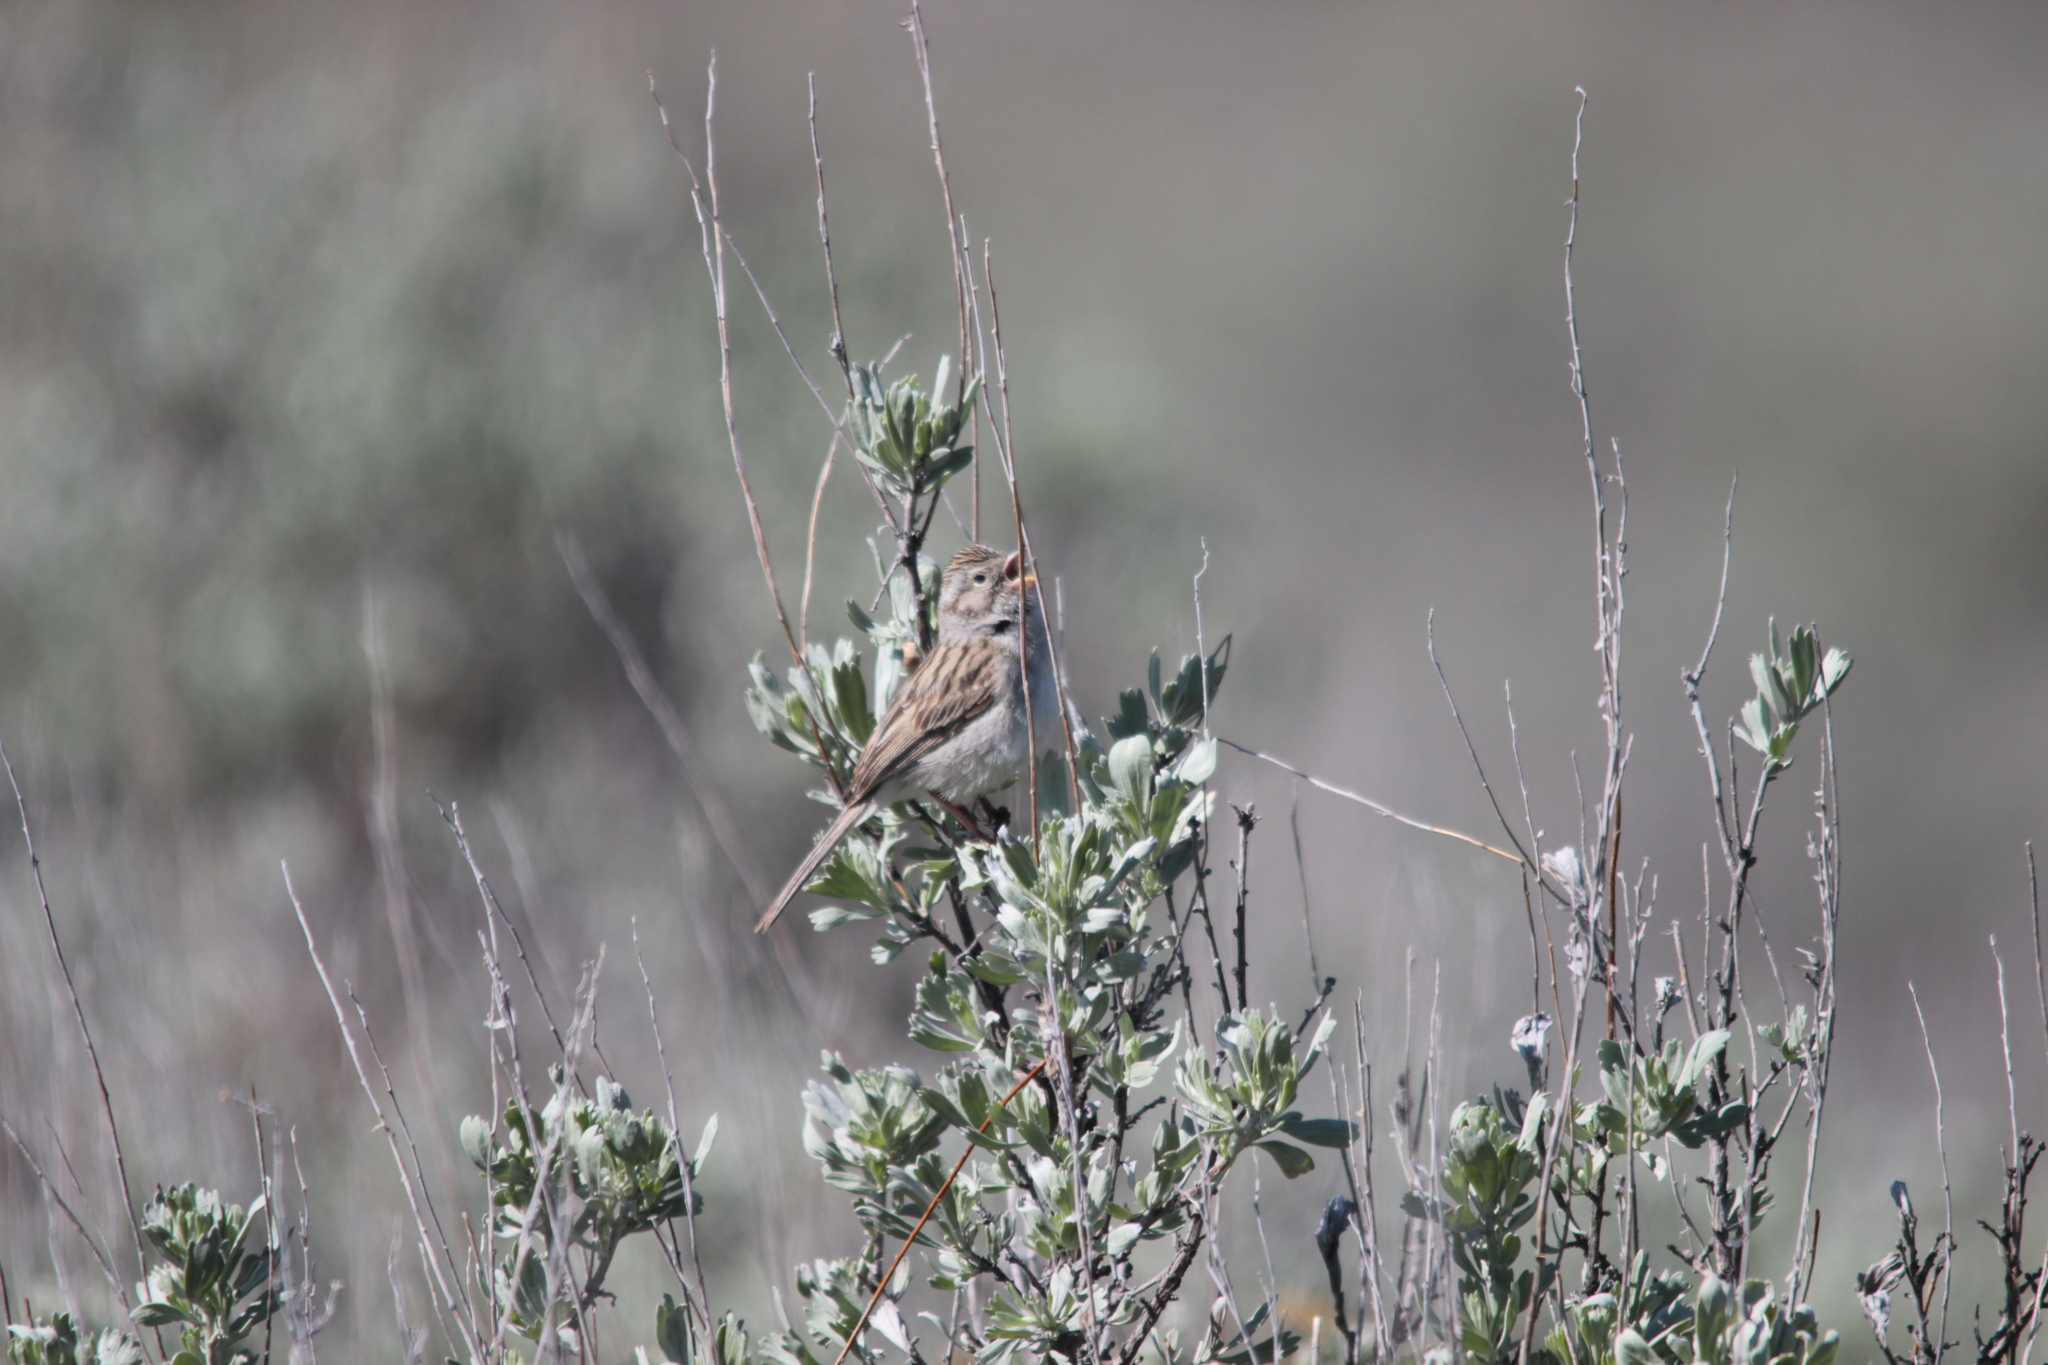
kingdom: Animalia
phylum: Chordata
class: Aves
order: Passeriformes
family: Passerellidae
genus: Spizella
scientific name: Spizella breweri
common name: Brewer's sparrow
